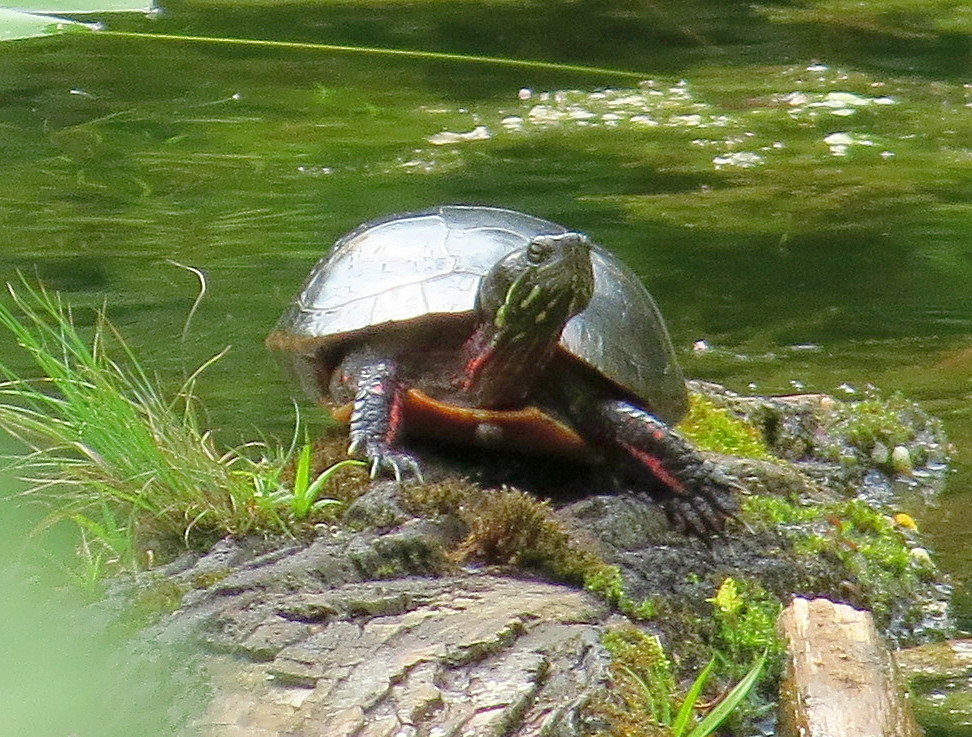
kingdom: Animalia
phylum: Chordata
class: Testudines
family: Emydidae
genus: Chrysemys
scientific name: Chrysemys picta
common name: Painted turtle
